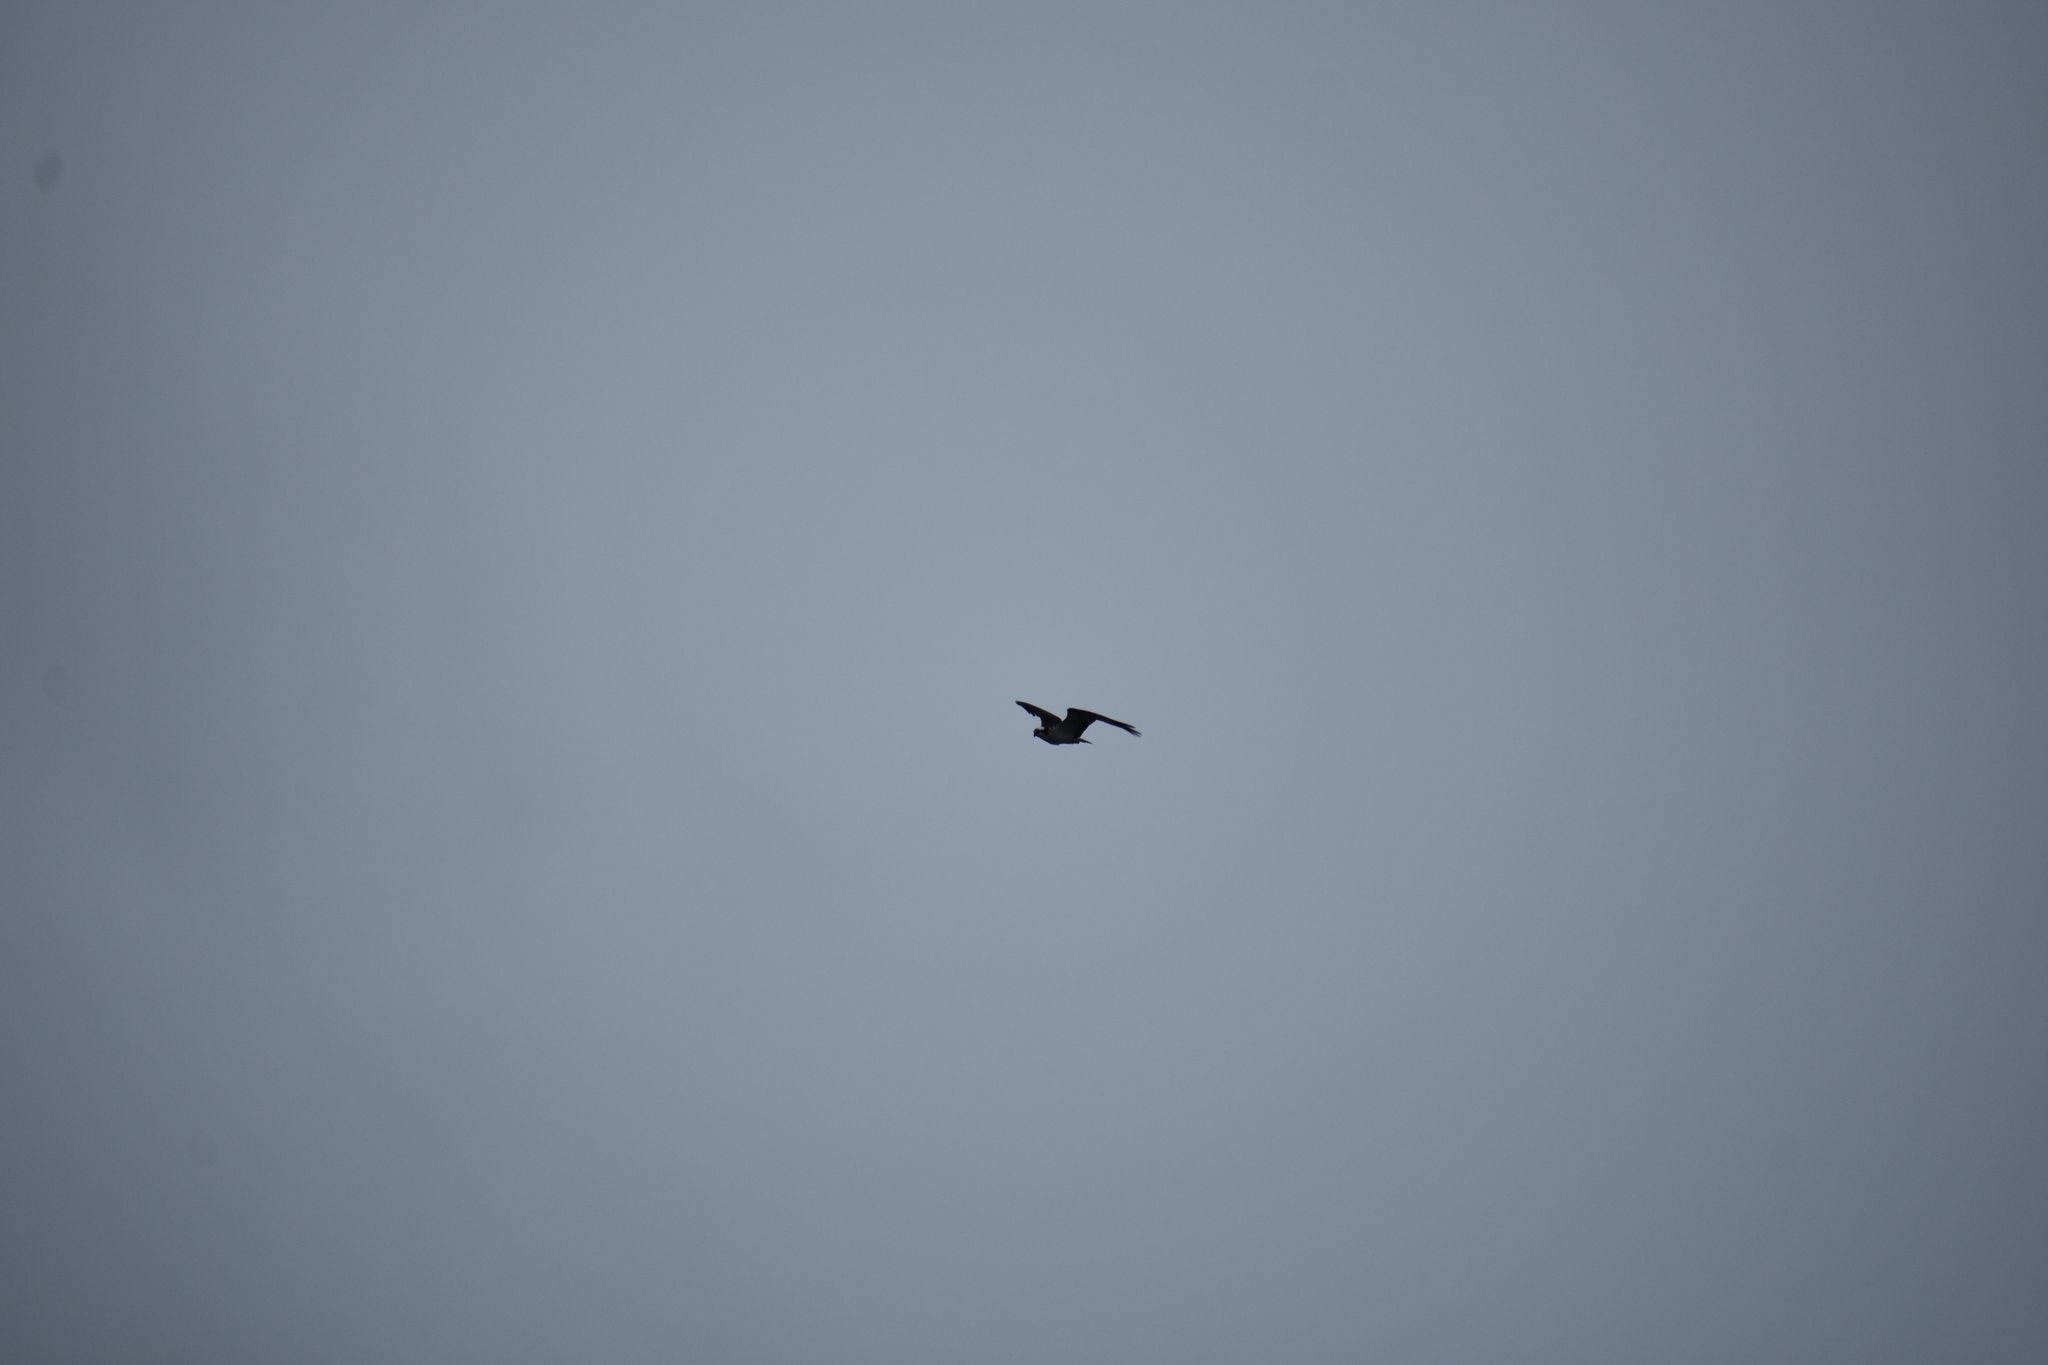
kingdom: Animalia
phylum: Chordata
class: Aves
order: Accipitriformes
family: Pandionidae
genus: Pandion
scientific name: Pandion haliaetus
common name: Osprey
